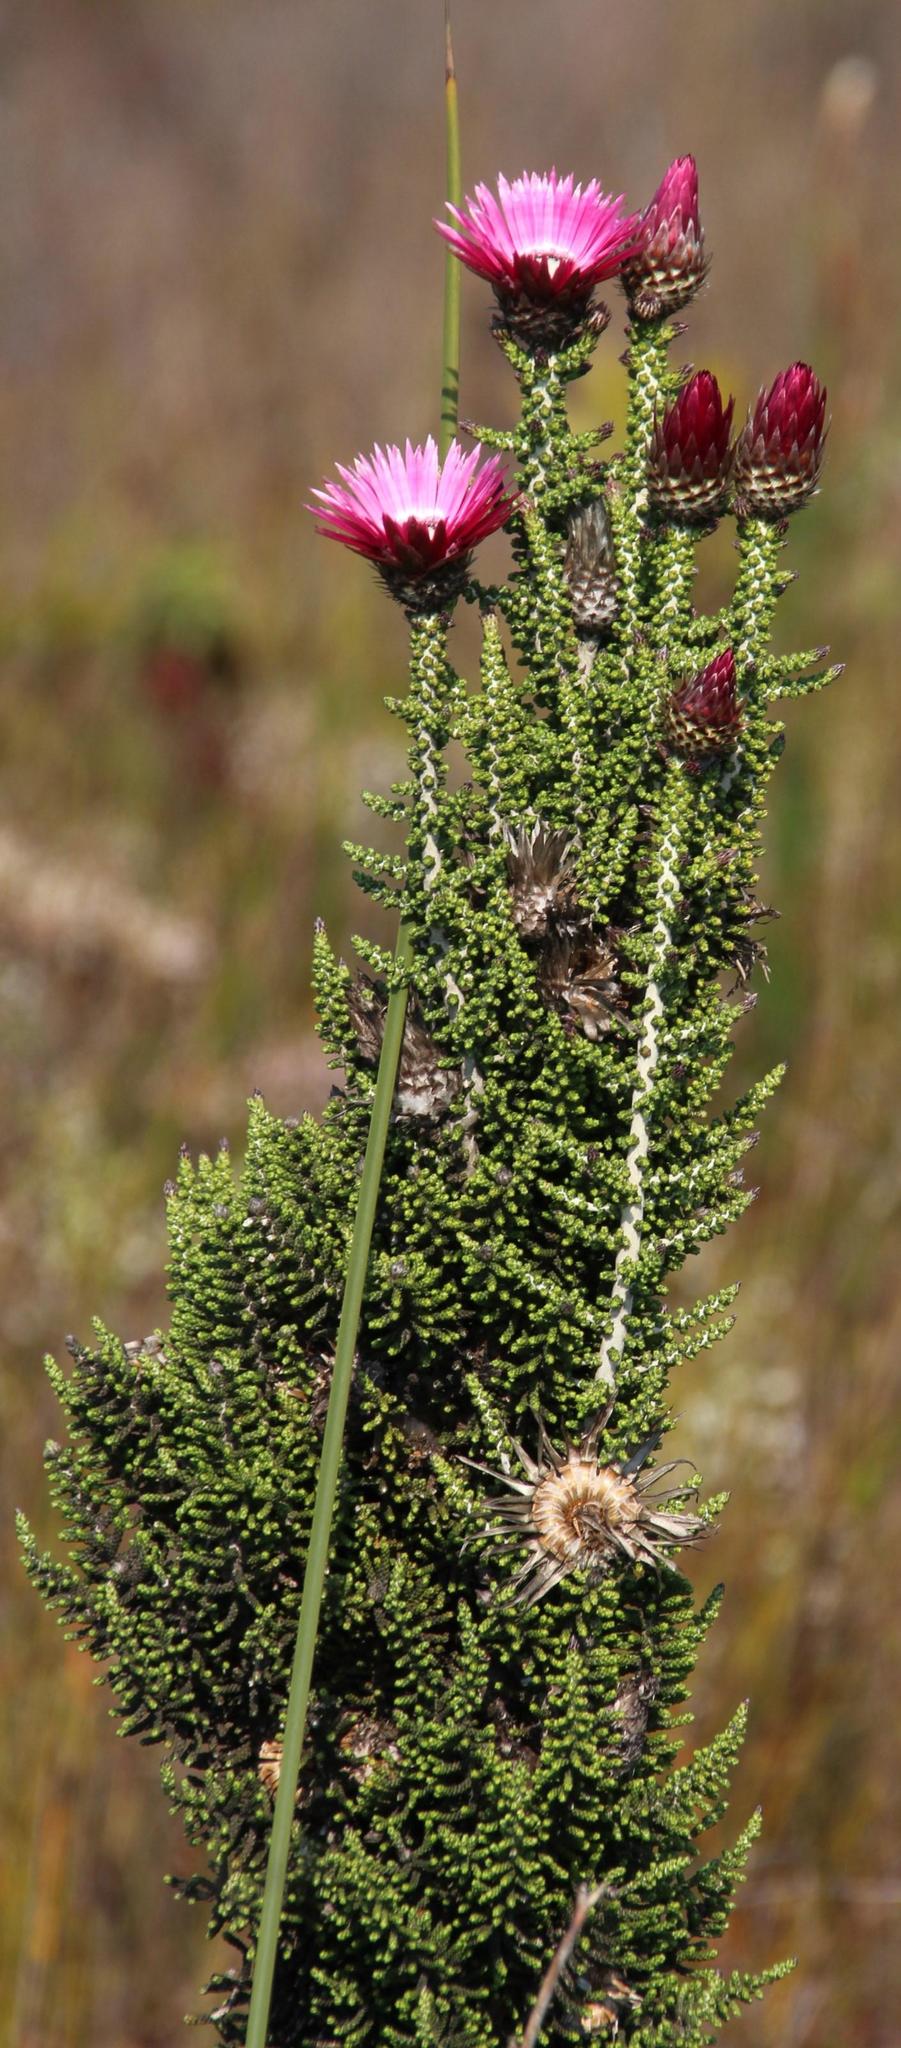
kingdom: Plantae
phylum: Tracheophyta
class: Magnoliopsida
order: Asterales
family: Asteraceae
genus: Phaenocoma
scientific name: Phaenocoma prolifera
